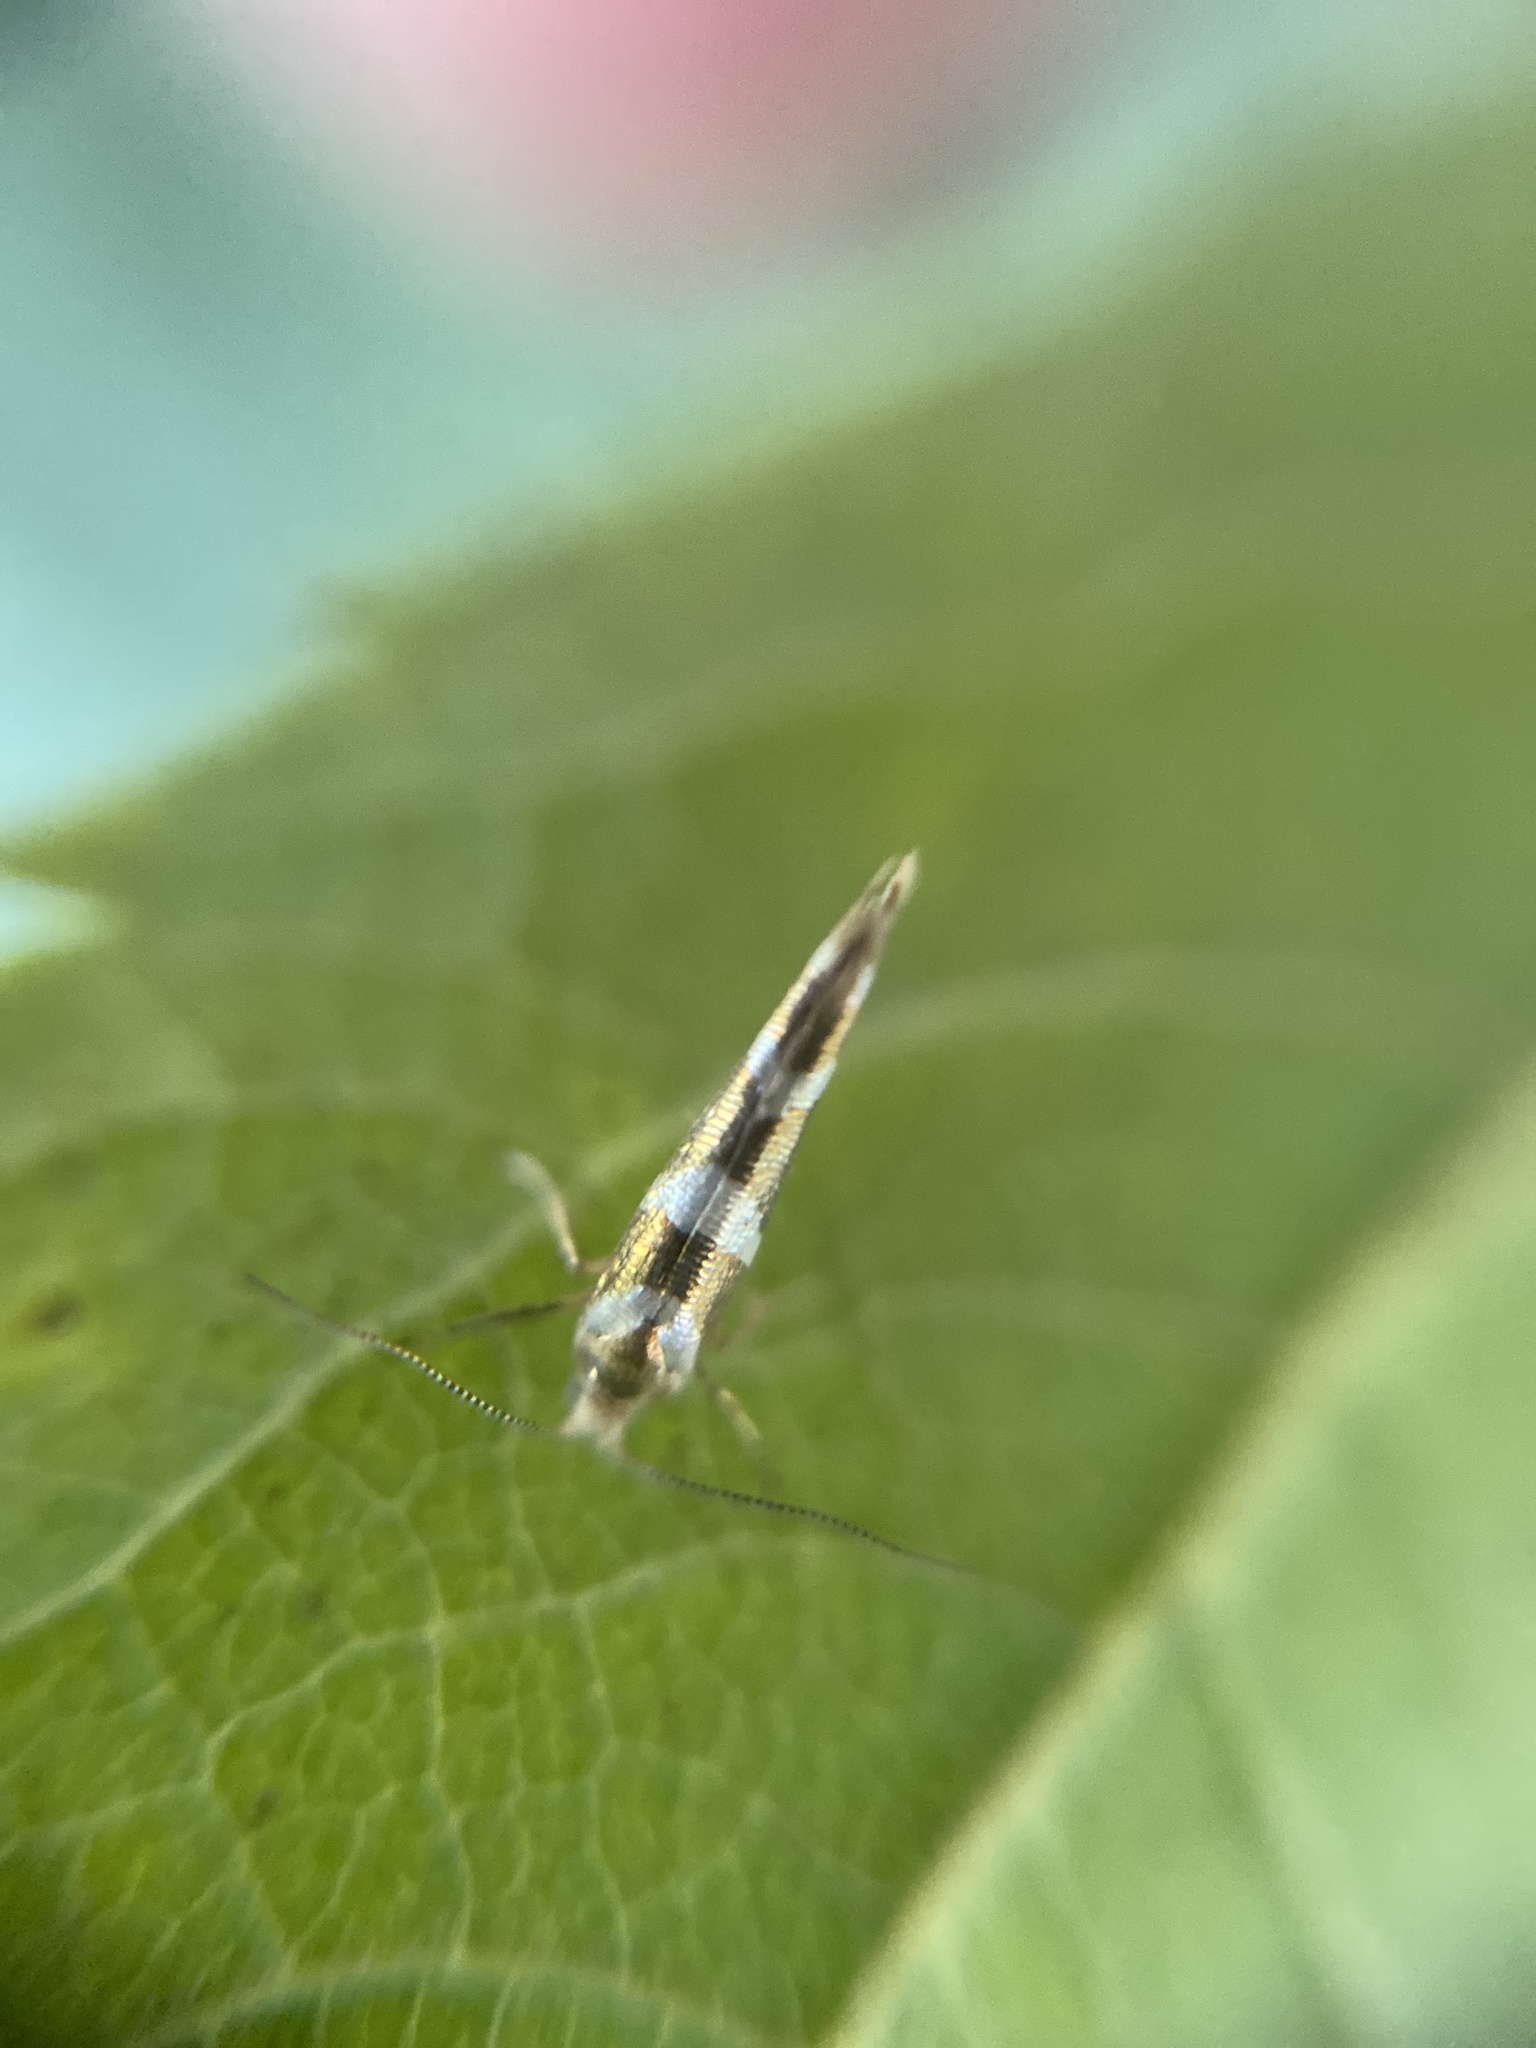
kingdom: Animalia
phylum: Arthropoda
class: Insecta
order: Lepidoptera
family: Argyresthiidae
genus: Argyresthia
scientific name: Argyresthia goedartella
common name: Golden argent
